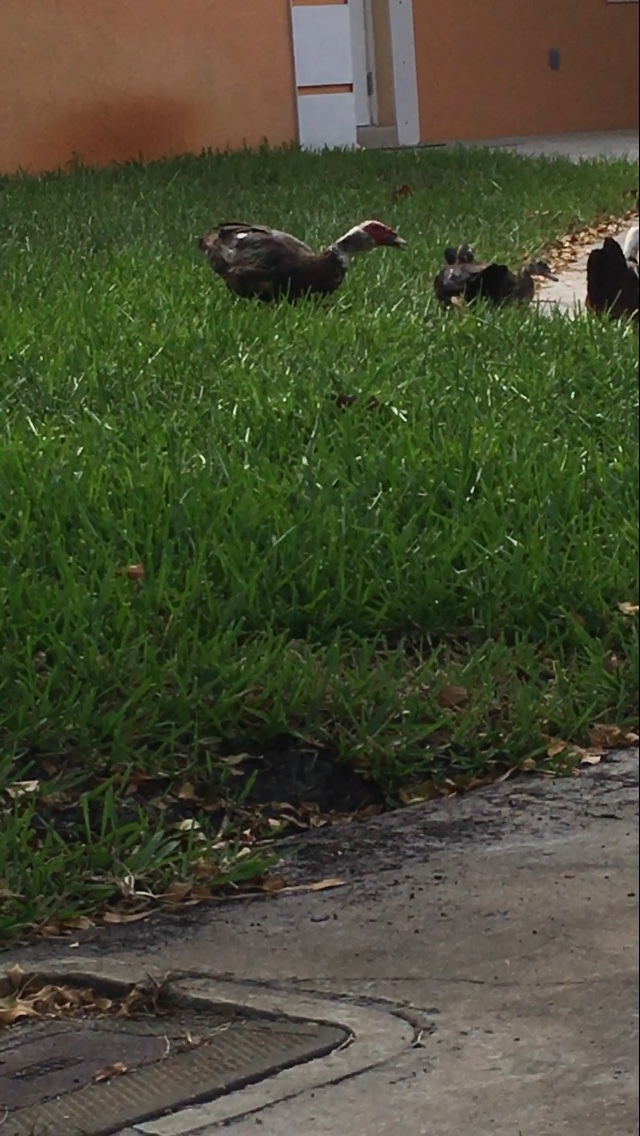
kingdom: Animalia
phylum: Chordata
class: Aves
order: Anseriformes
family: Anatidae
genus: Cairina
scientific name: Cairina moschata
